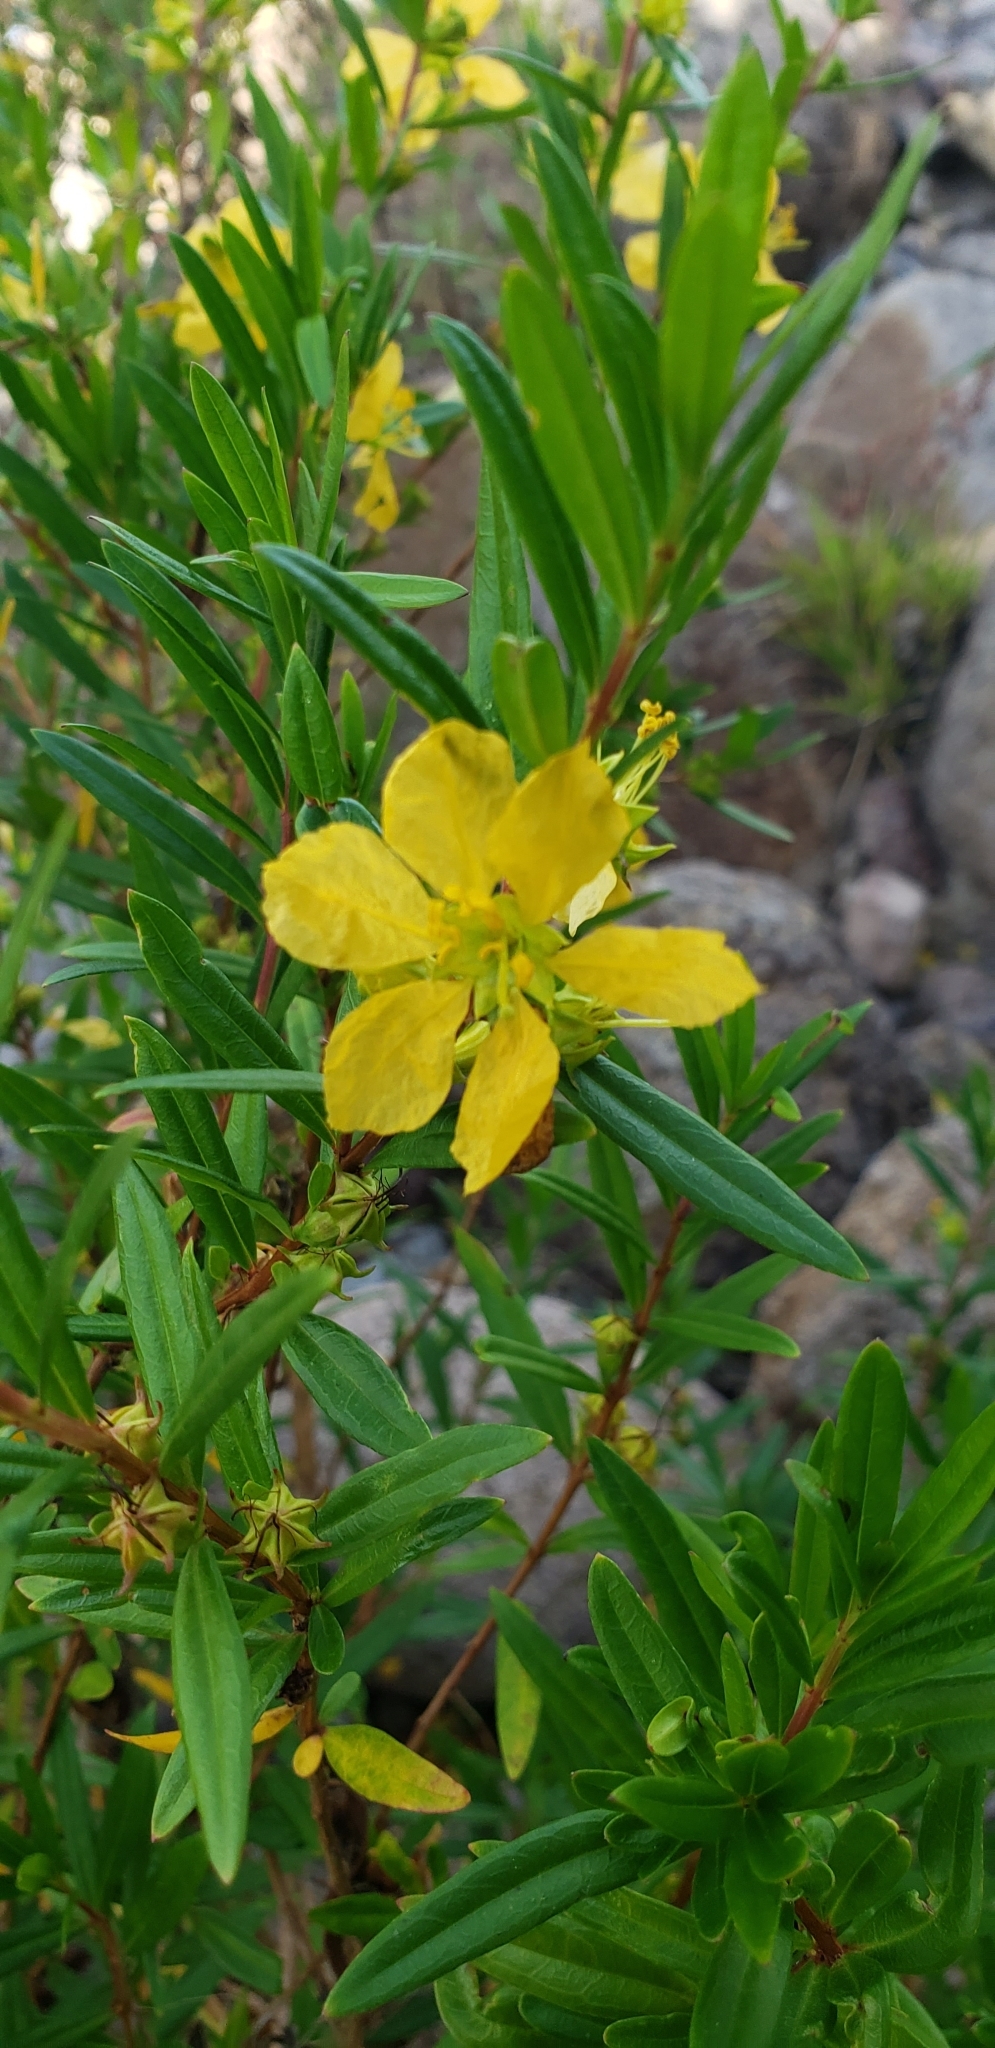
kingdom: Plantae
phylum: Tracheophyta
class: Magnoliopsida
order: Myrtales
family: Lythraceae
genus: Heimia
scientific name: Heimia salicifolia
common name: Willow-leaf heimia
